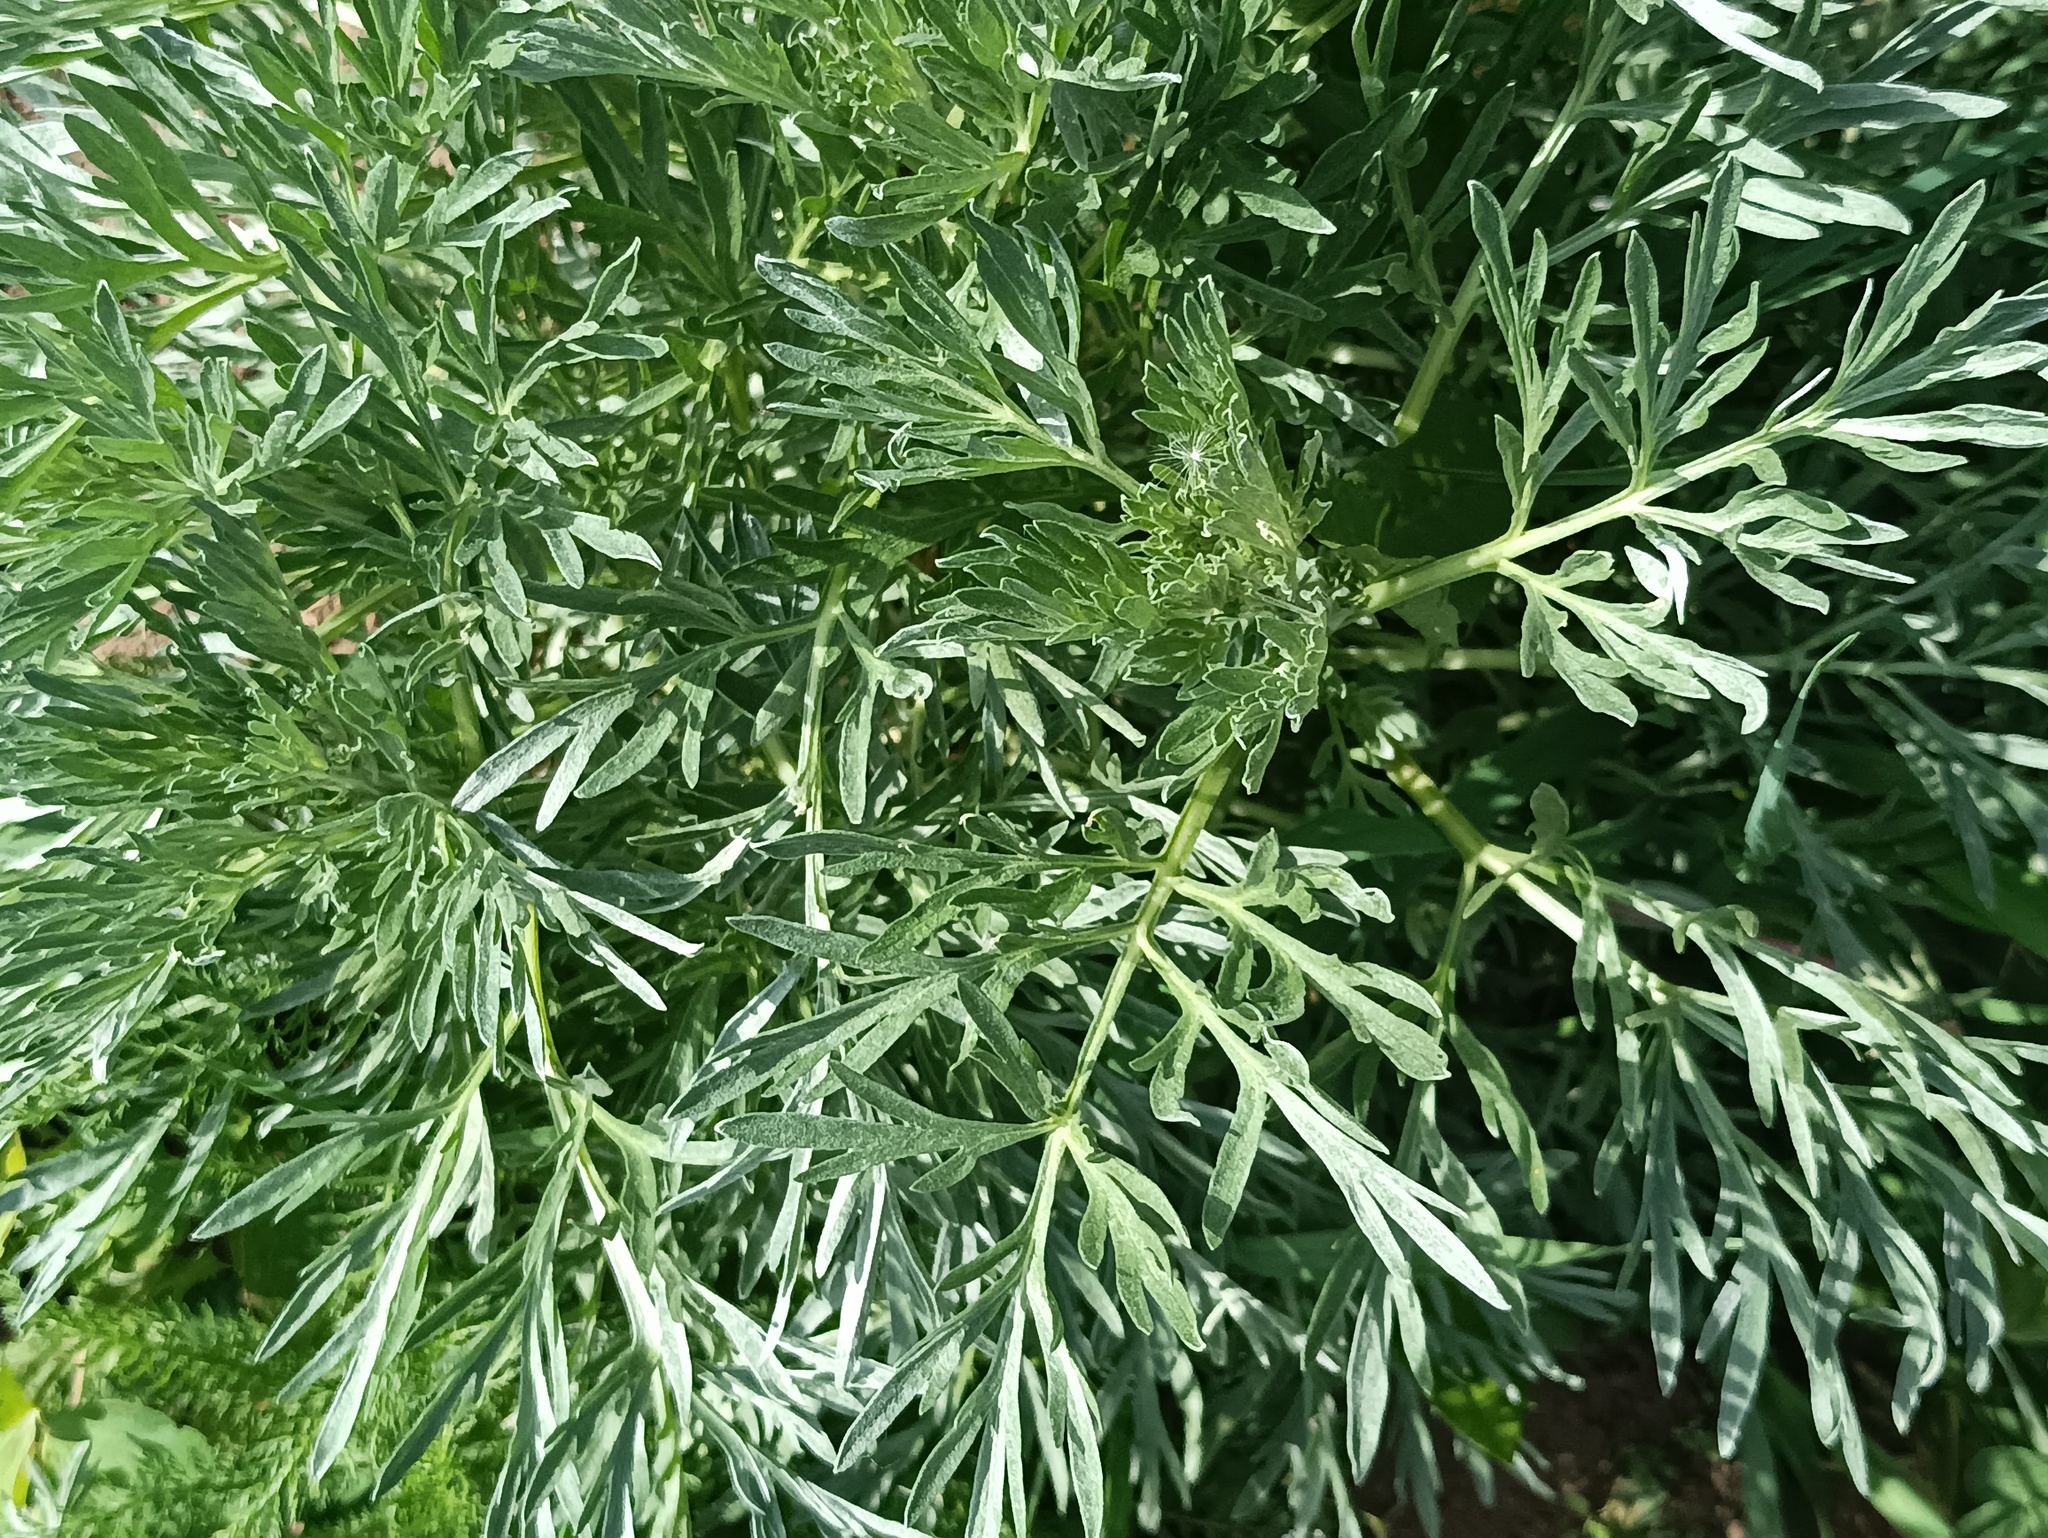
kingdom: Plantae
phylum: Tracheophyta
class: Magnoliopsida
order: Asterales
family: Asteraceae
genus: Artemisia
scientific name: Artemisia absinthium
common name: Wormwood
